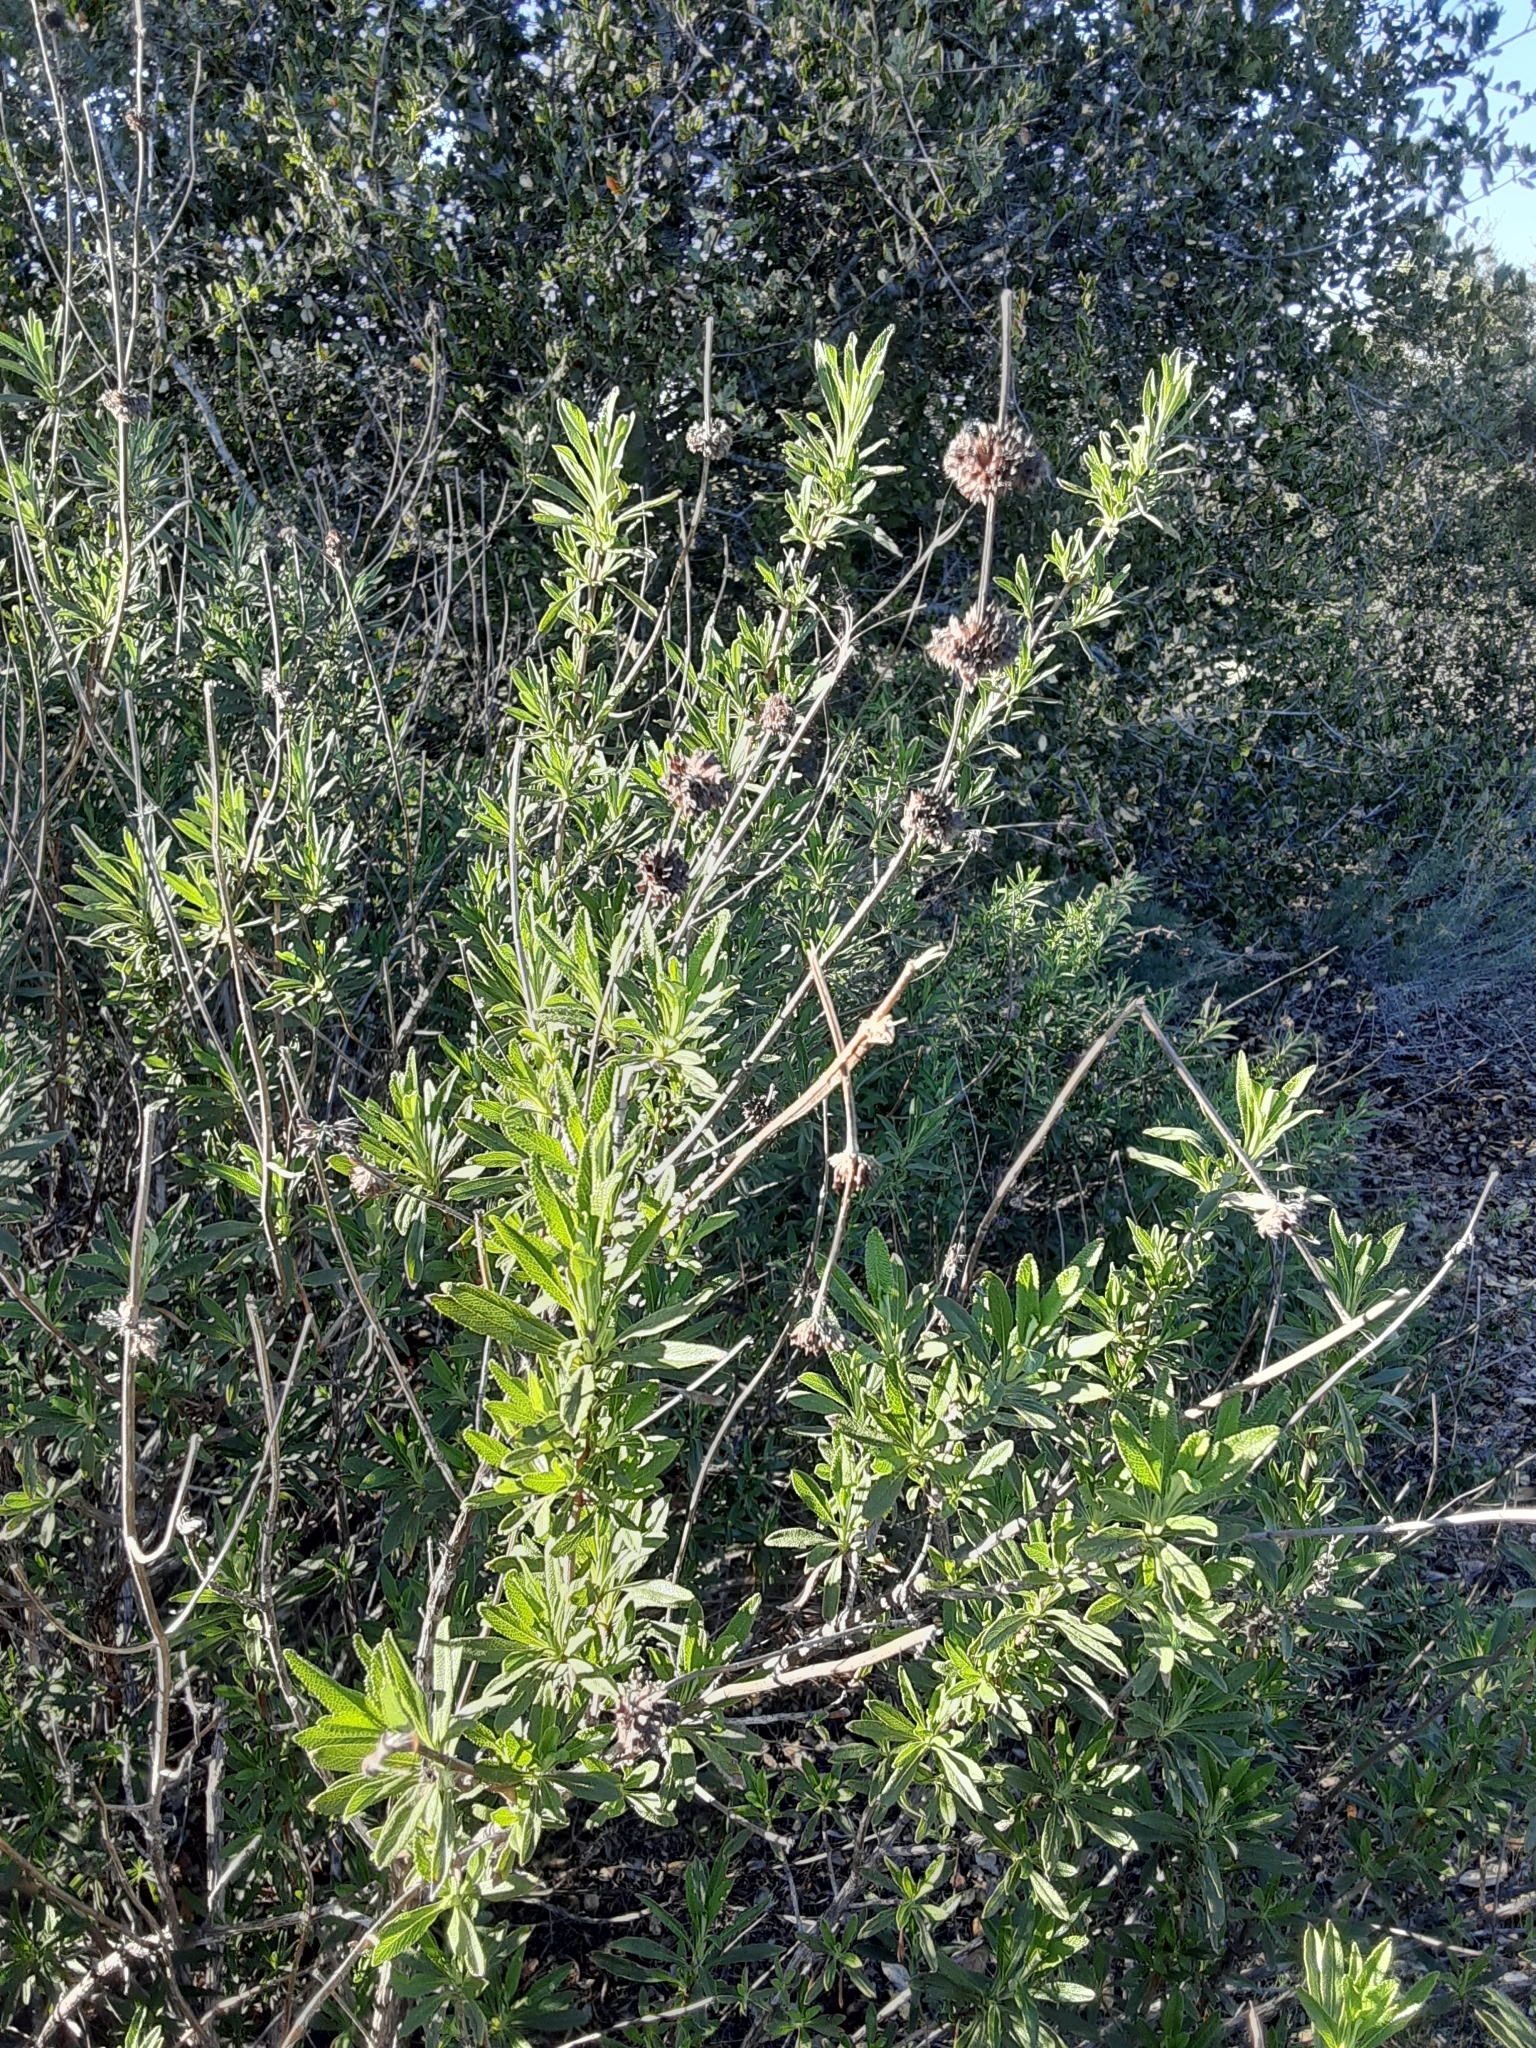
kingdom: Plantae
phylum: Tracheophyta
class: Magnoliopsida
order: Lamiales
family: Lamiaceae
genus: Salvia
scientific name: Salvia mellifera
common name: Black sage
